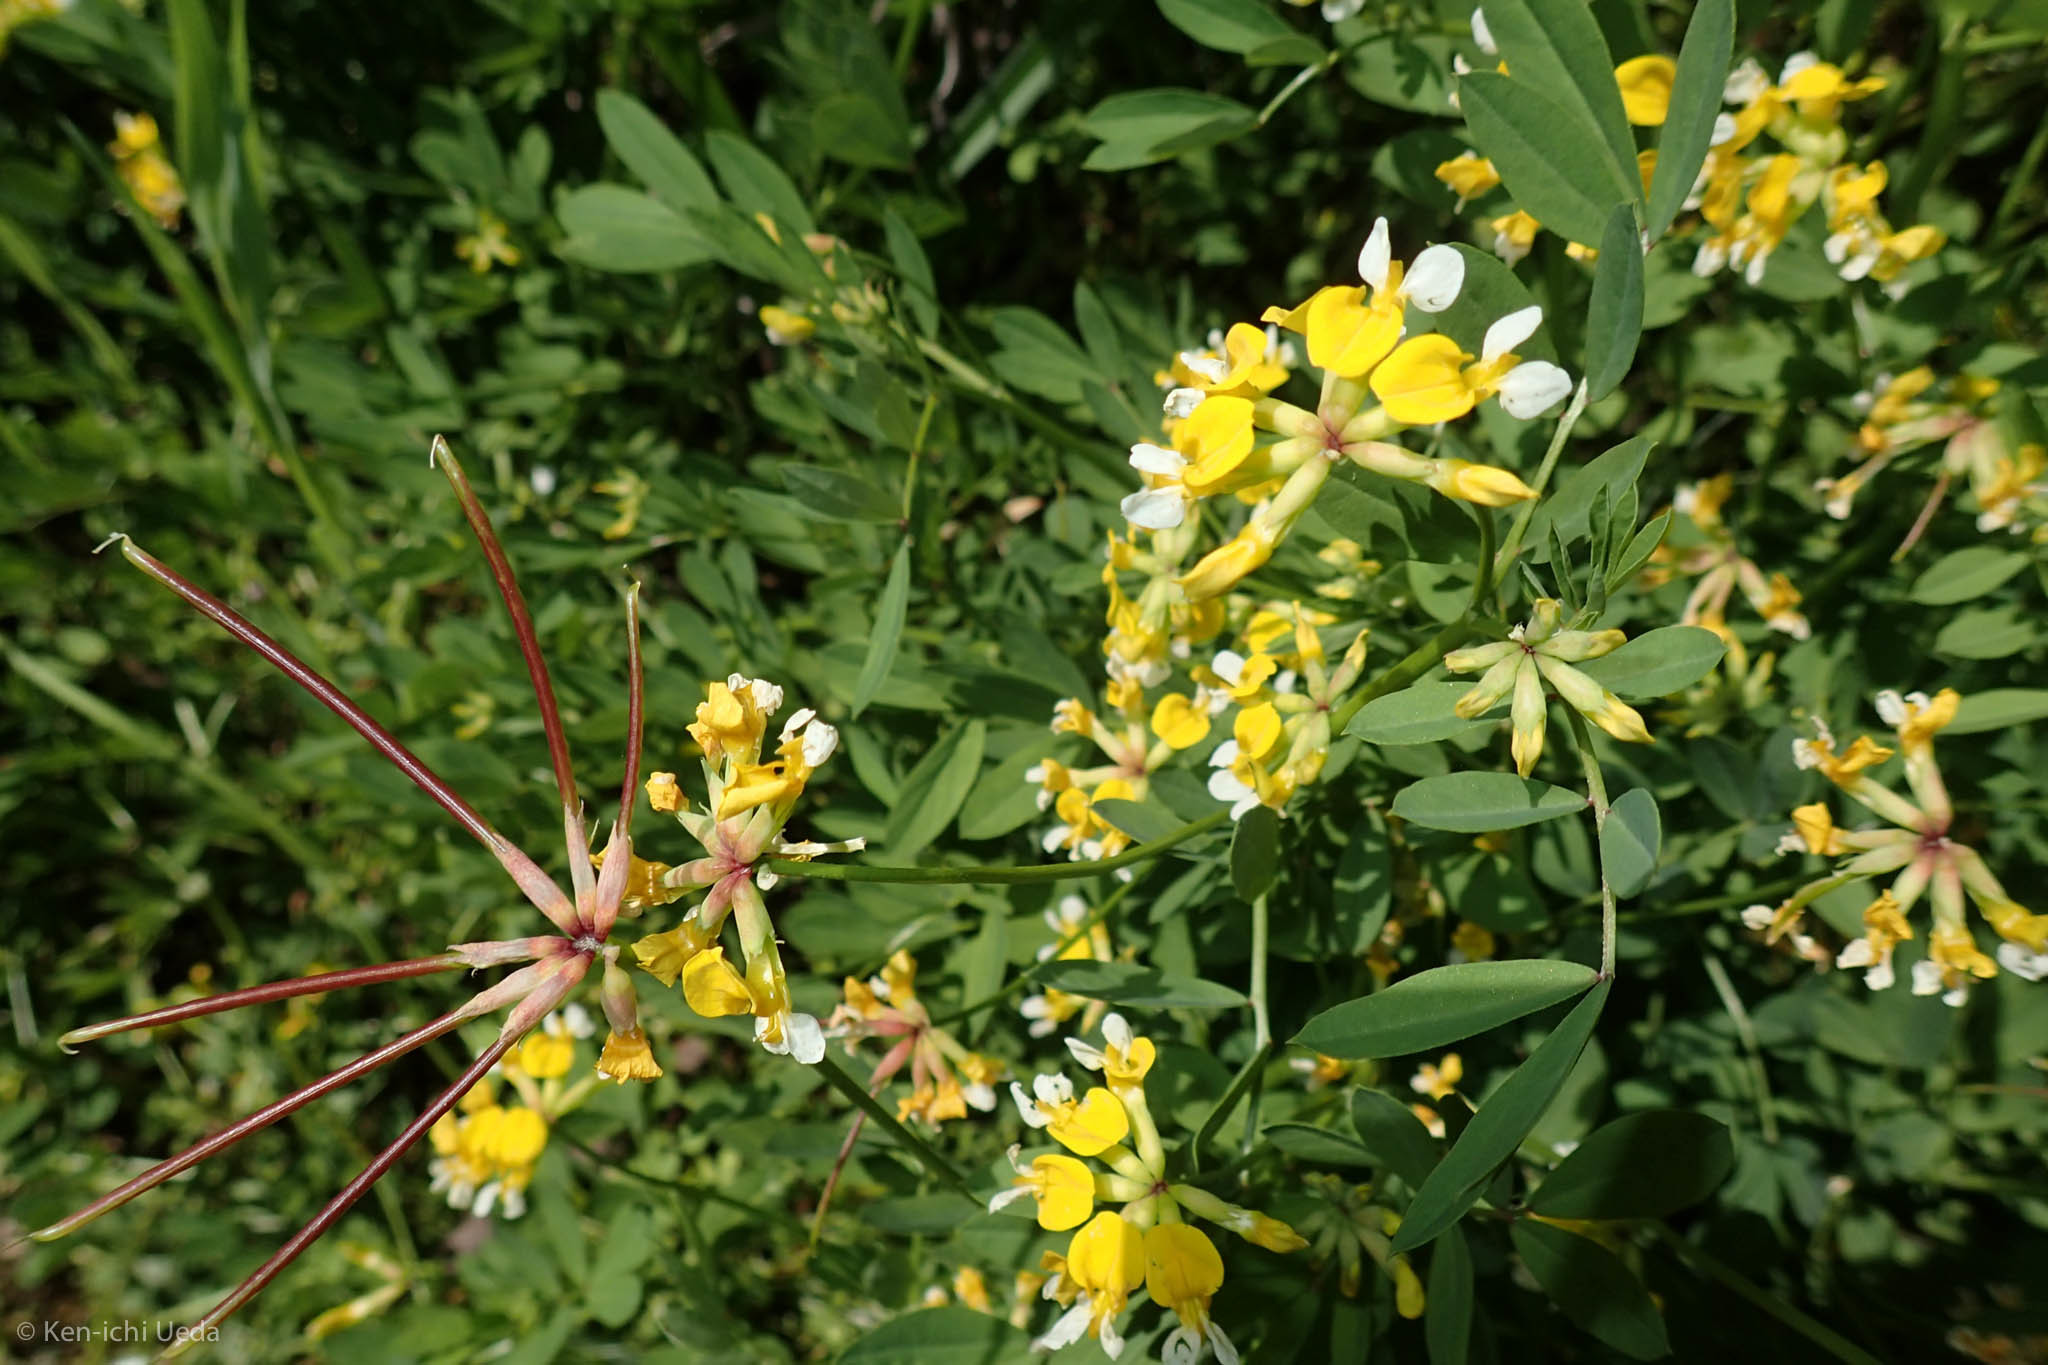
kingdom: Plantae
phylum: Tracheophyta
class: Magnoliopsida
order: Fabales
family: Fabaceae
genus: Hosackia
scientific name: Hosackia pinnata
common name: Bog bird's-foot trefoil
